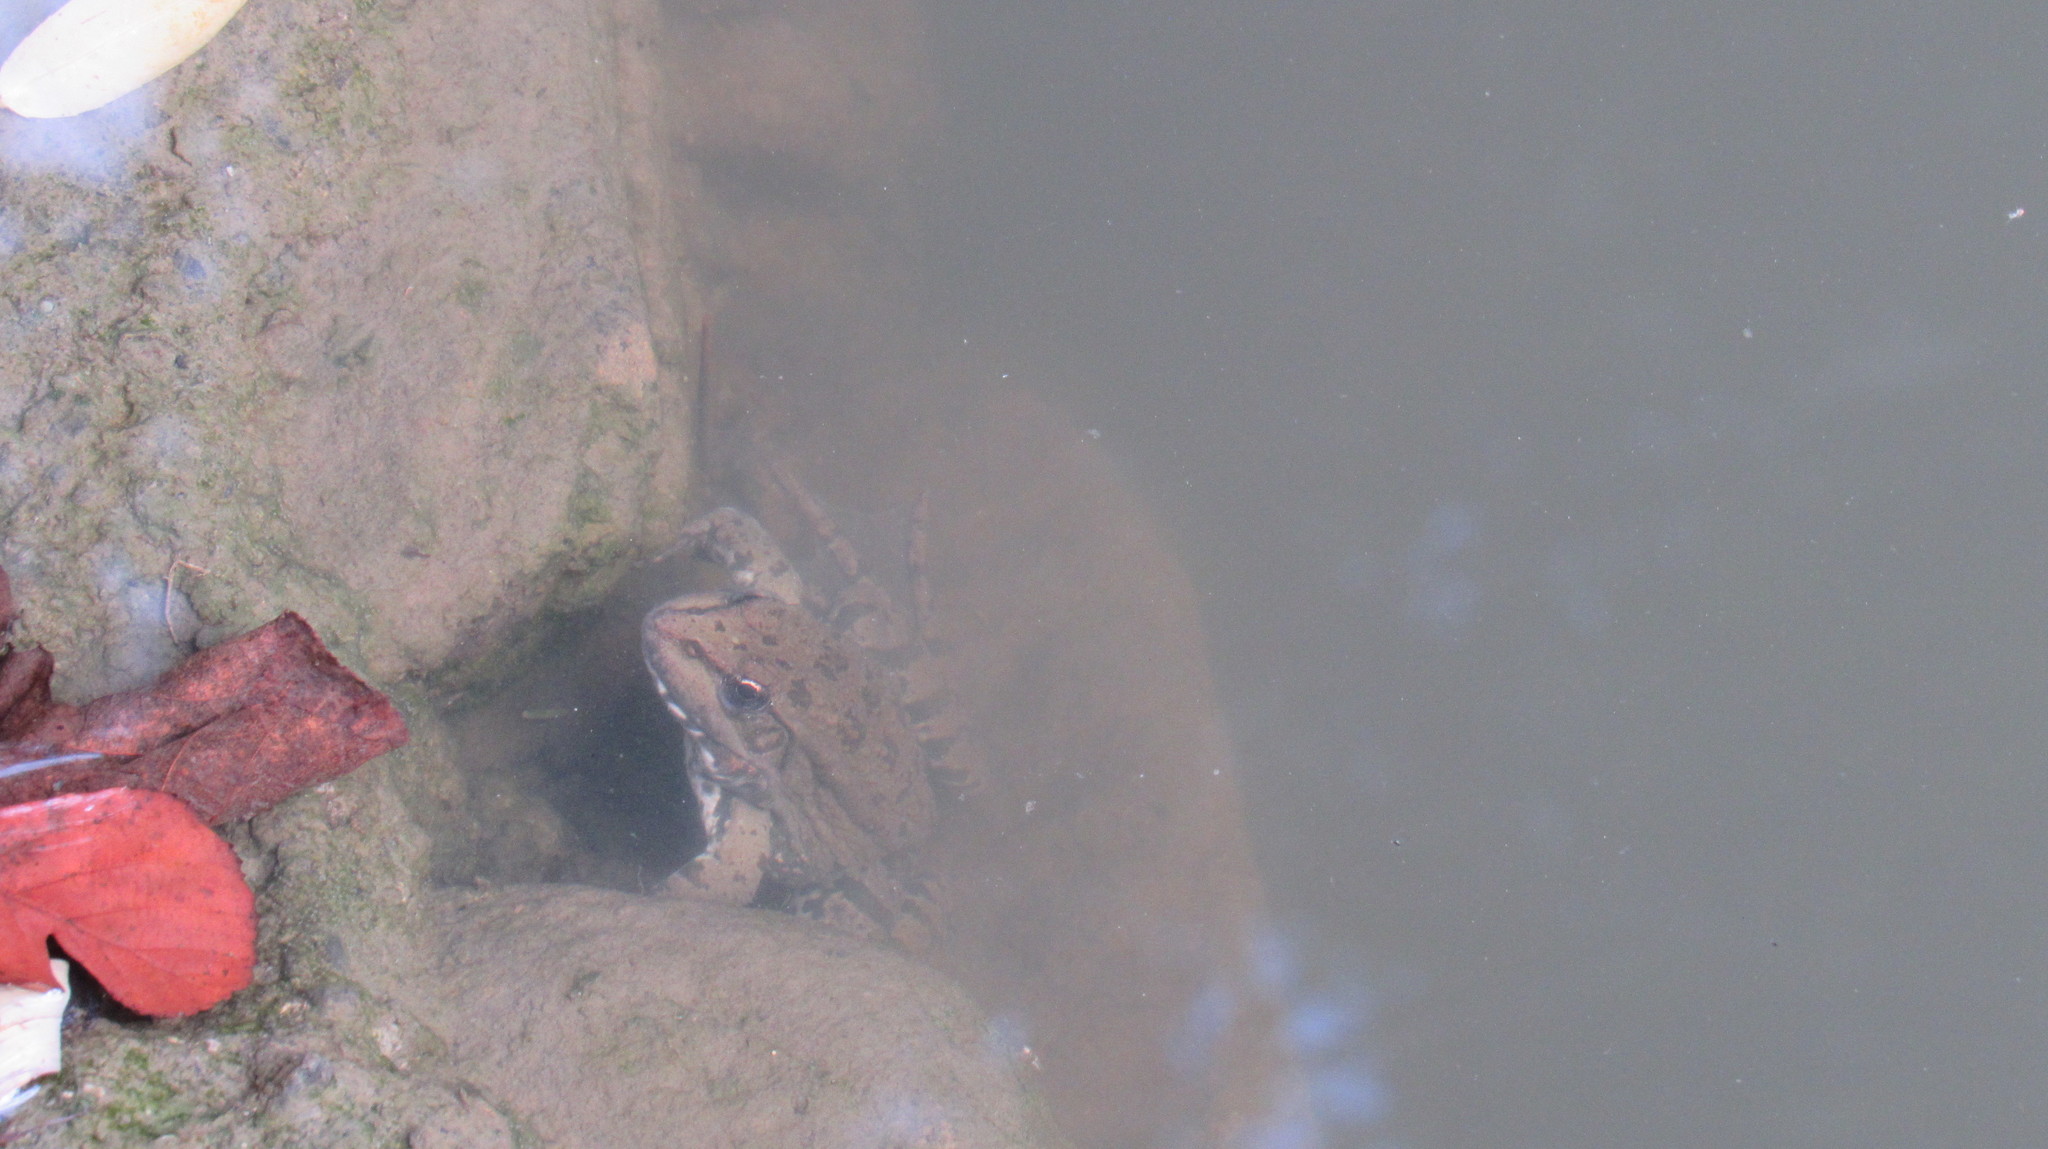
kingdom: Animalia
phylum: Chordata
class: Amphibia
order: Anura
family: Ranidae
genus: Pelophylax
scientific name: Pelophylax ridibundus
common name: Marsh frog
